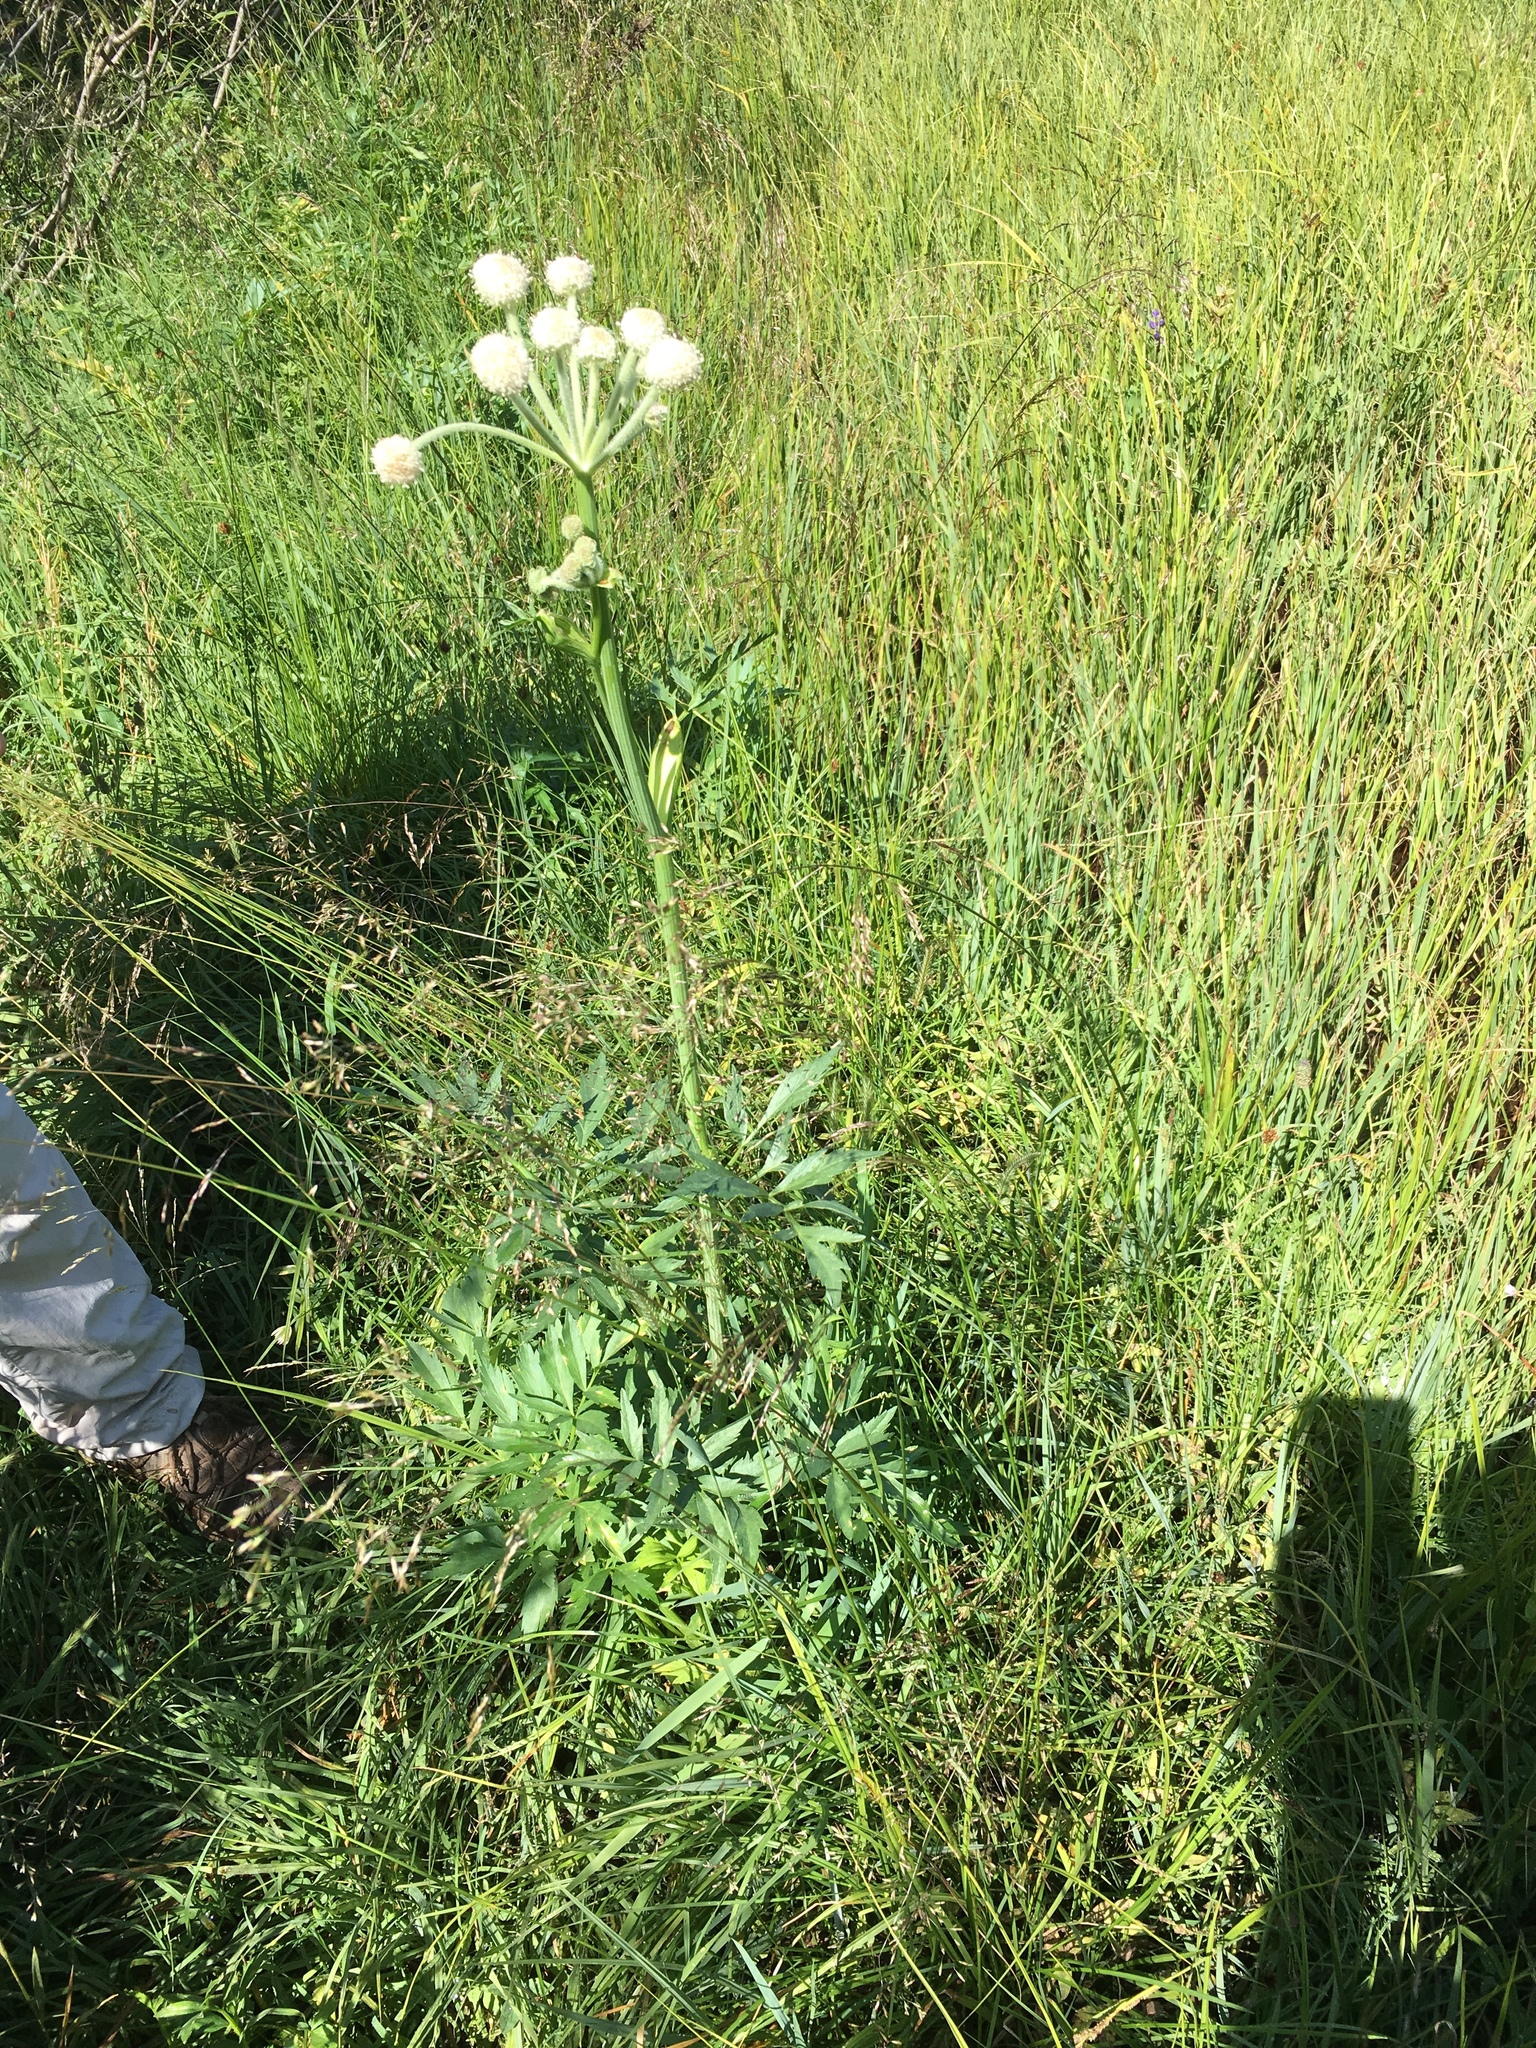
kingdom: Plantae
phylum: Tracheophyta
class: Magnoliopsida
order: Apiales
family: Apiaceae
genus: Angelica
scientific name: Angelica capitellata
